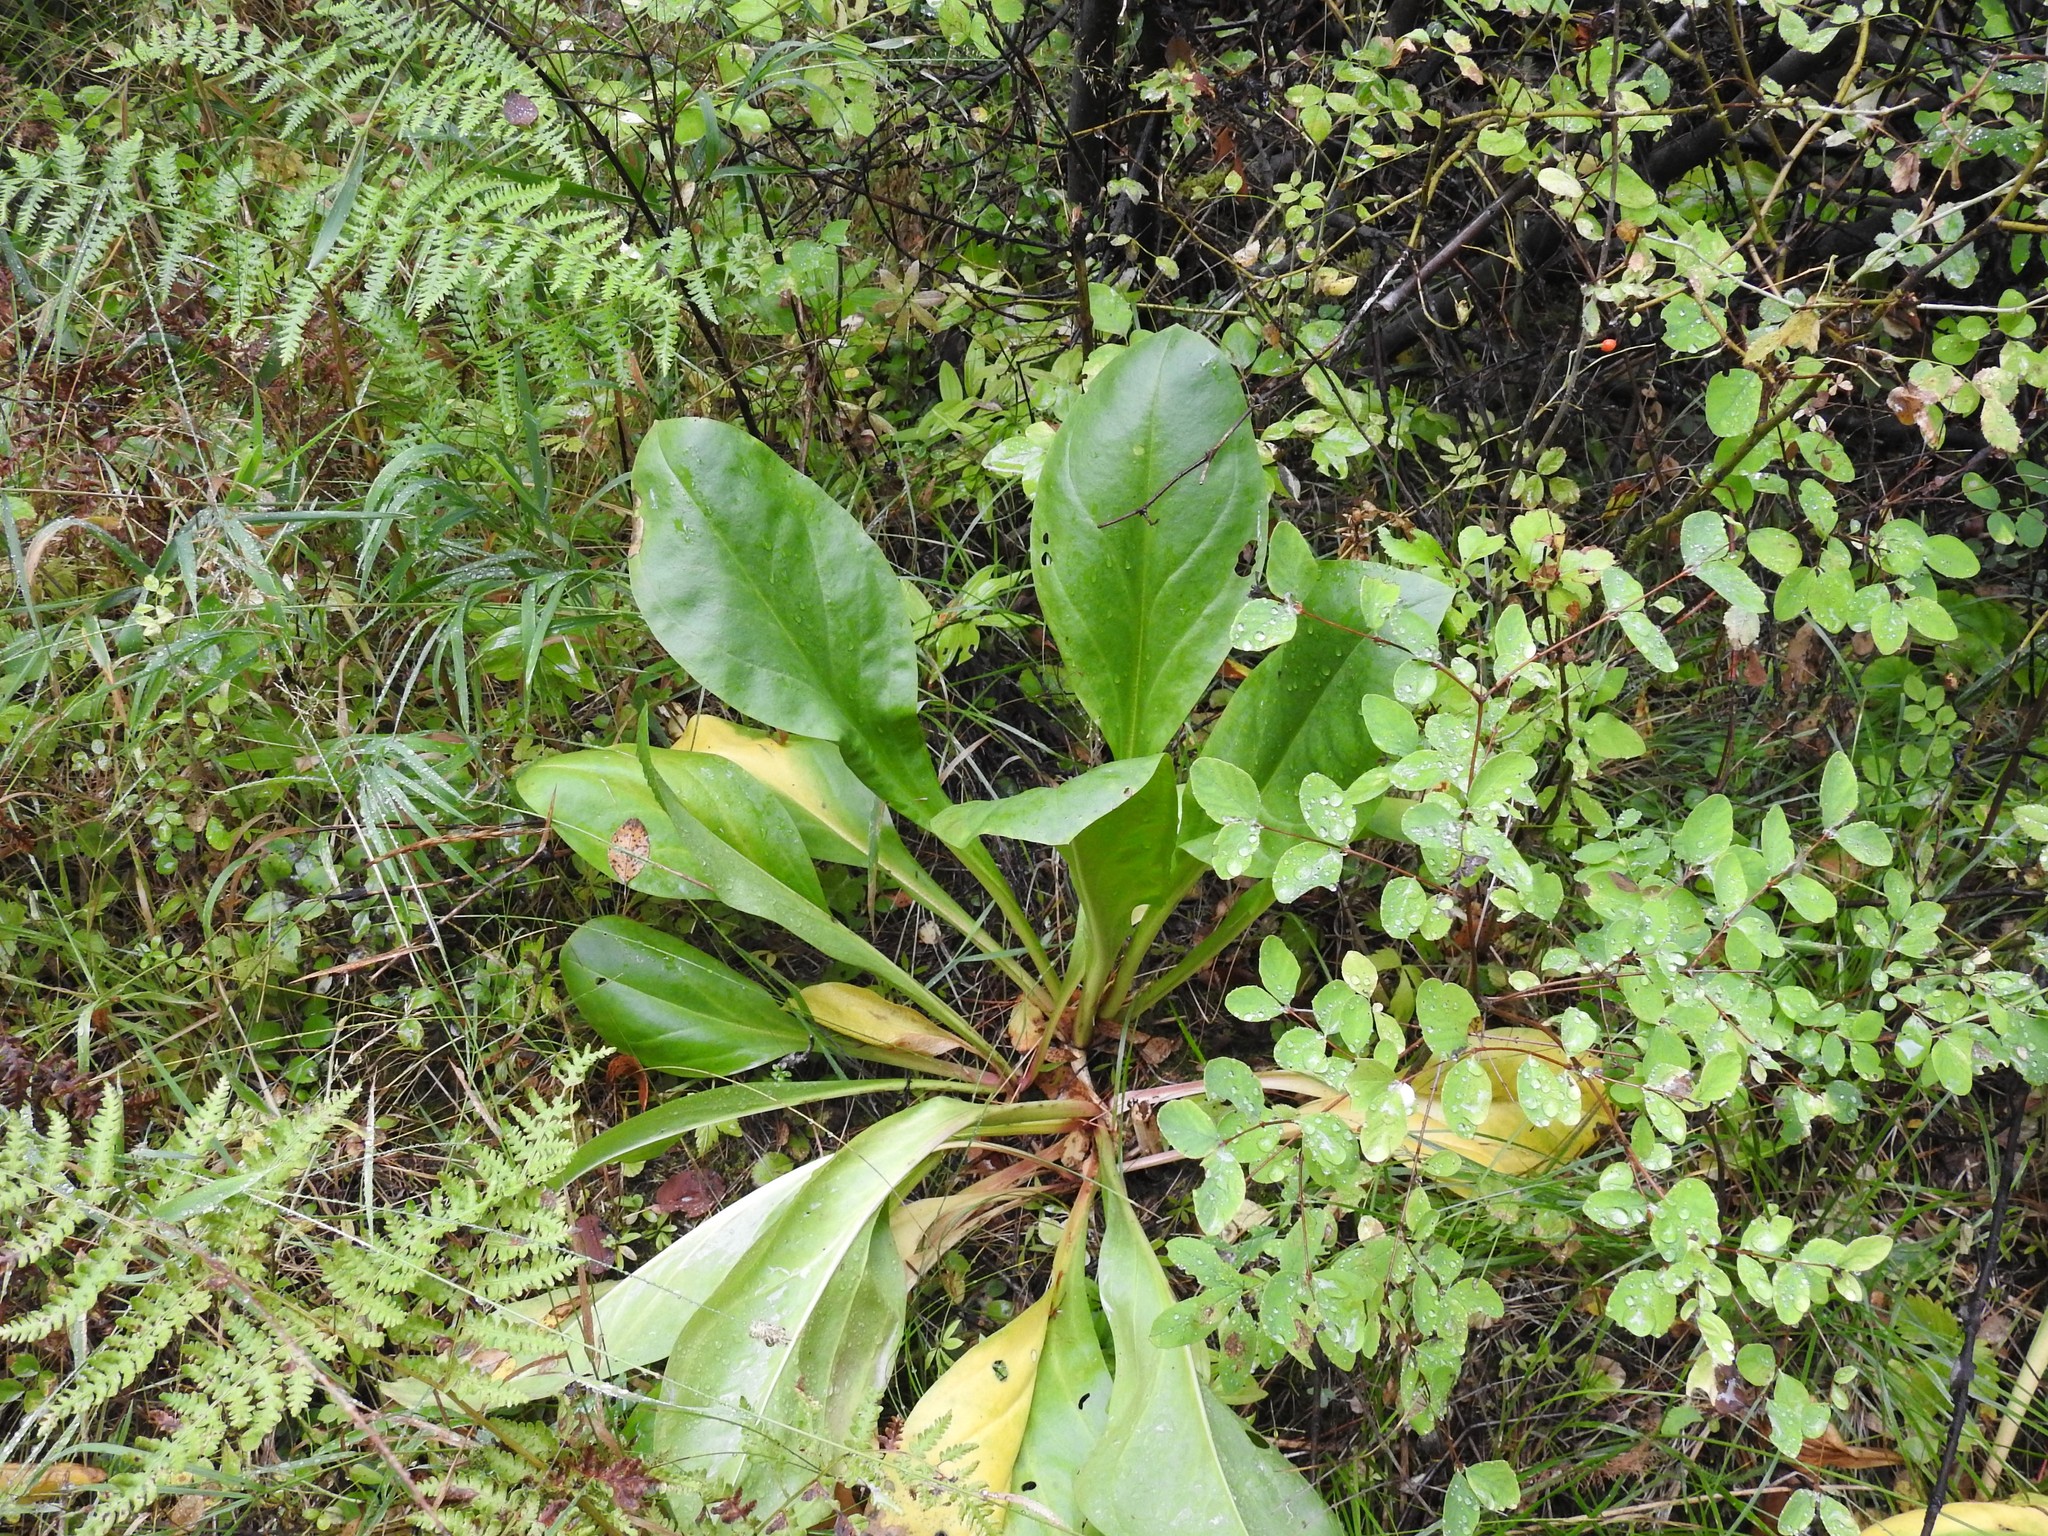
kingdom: Plantae
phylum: Tracheophyta
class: Magnoliopsida
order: Gentianales
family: Gentianaceae
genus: Frasera
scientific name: Frasera fastigiata
